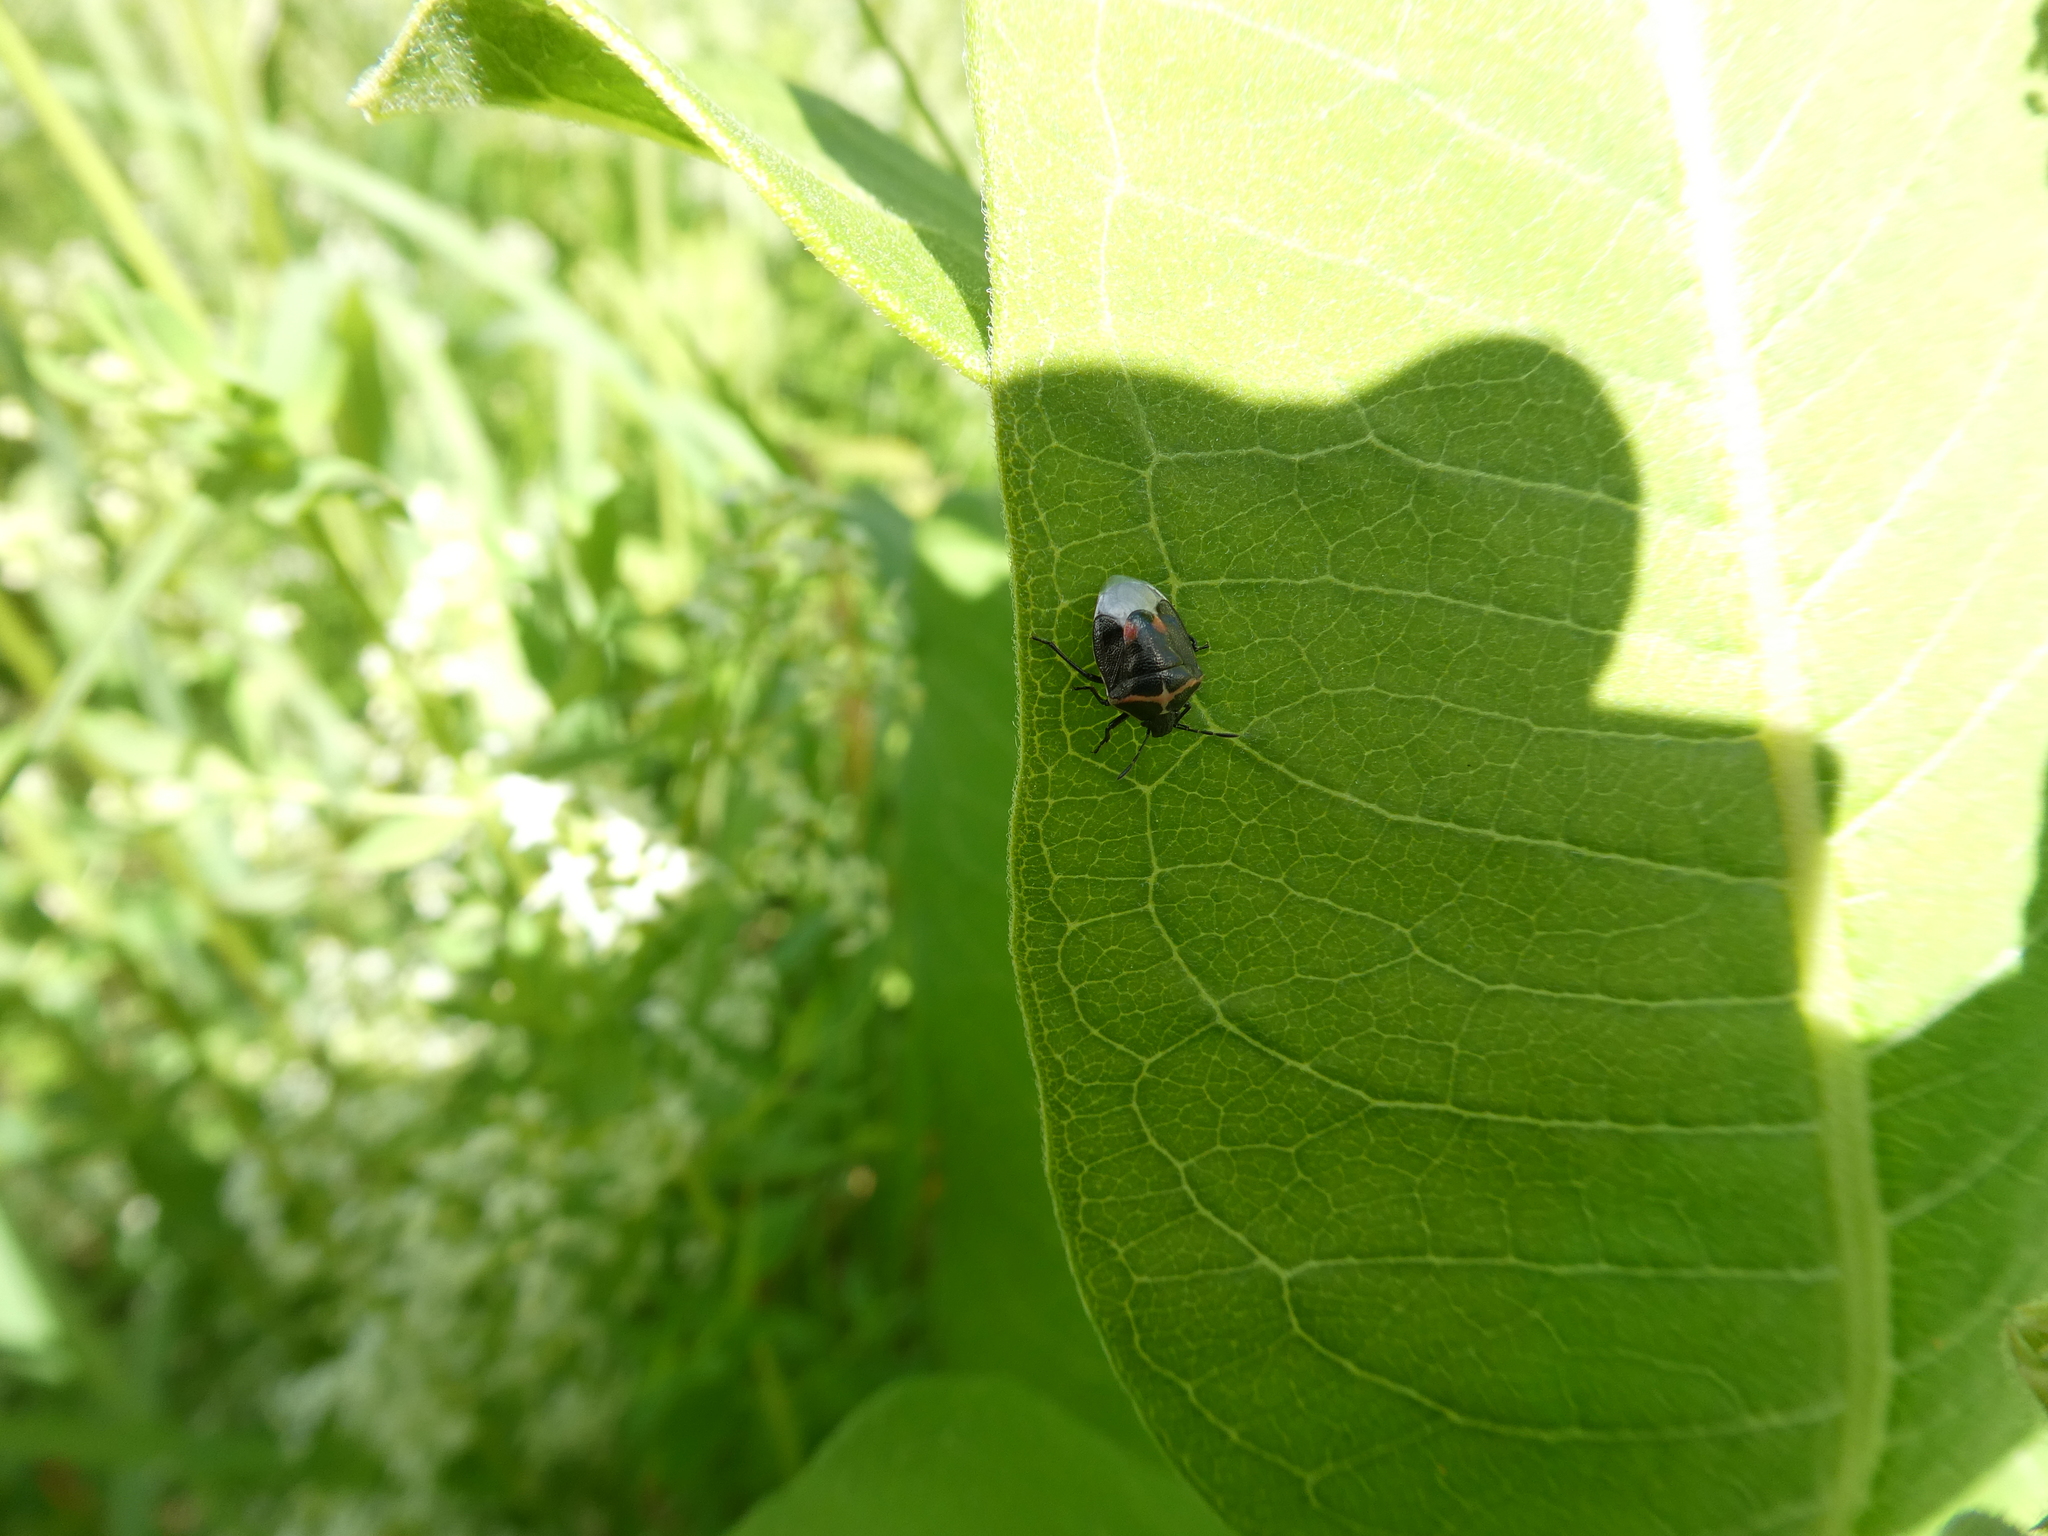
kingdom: Animalia
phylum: Arthropoda
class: Insecta
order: Hemiptera
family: Pentatomidae
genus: Cosmopepla
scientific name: Cosmopepla lintneriana
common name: Twice-stabbed stink bug
